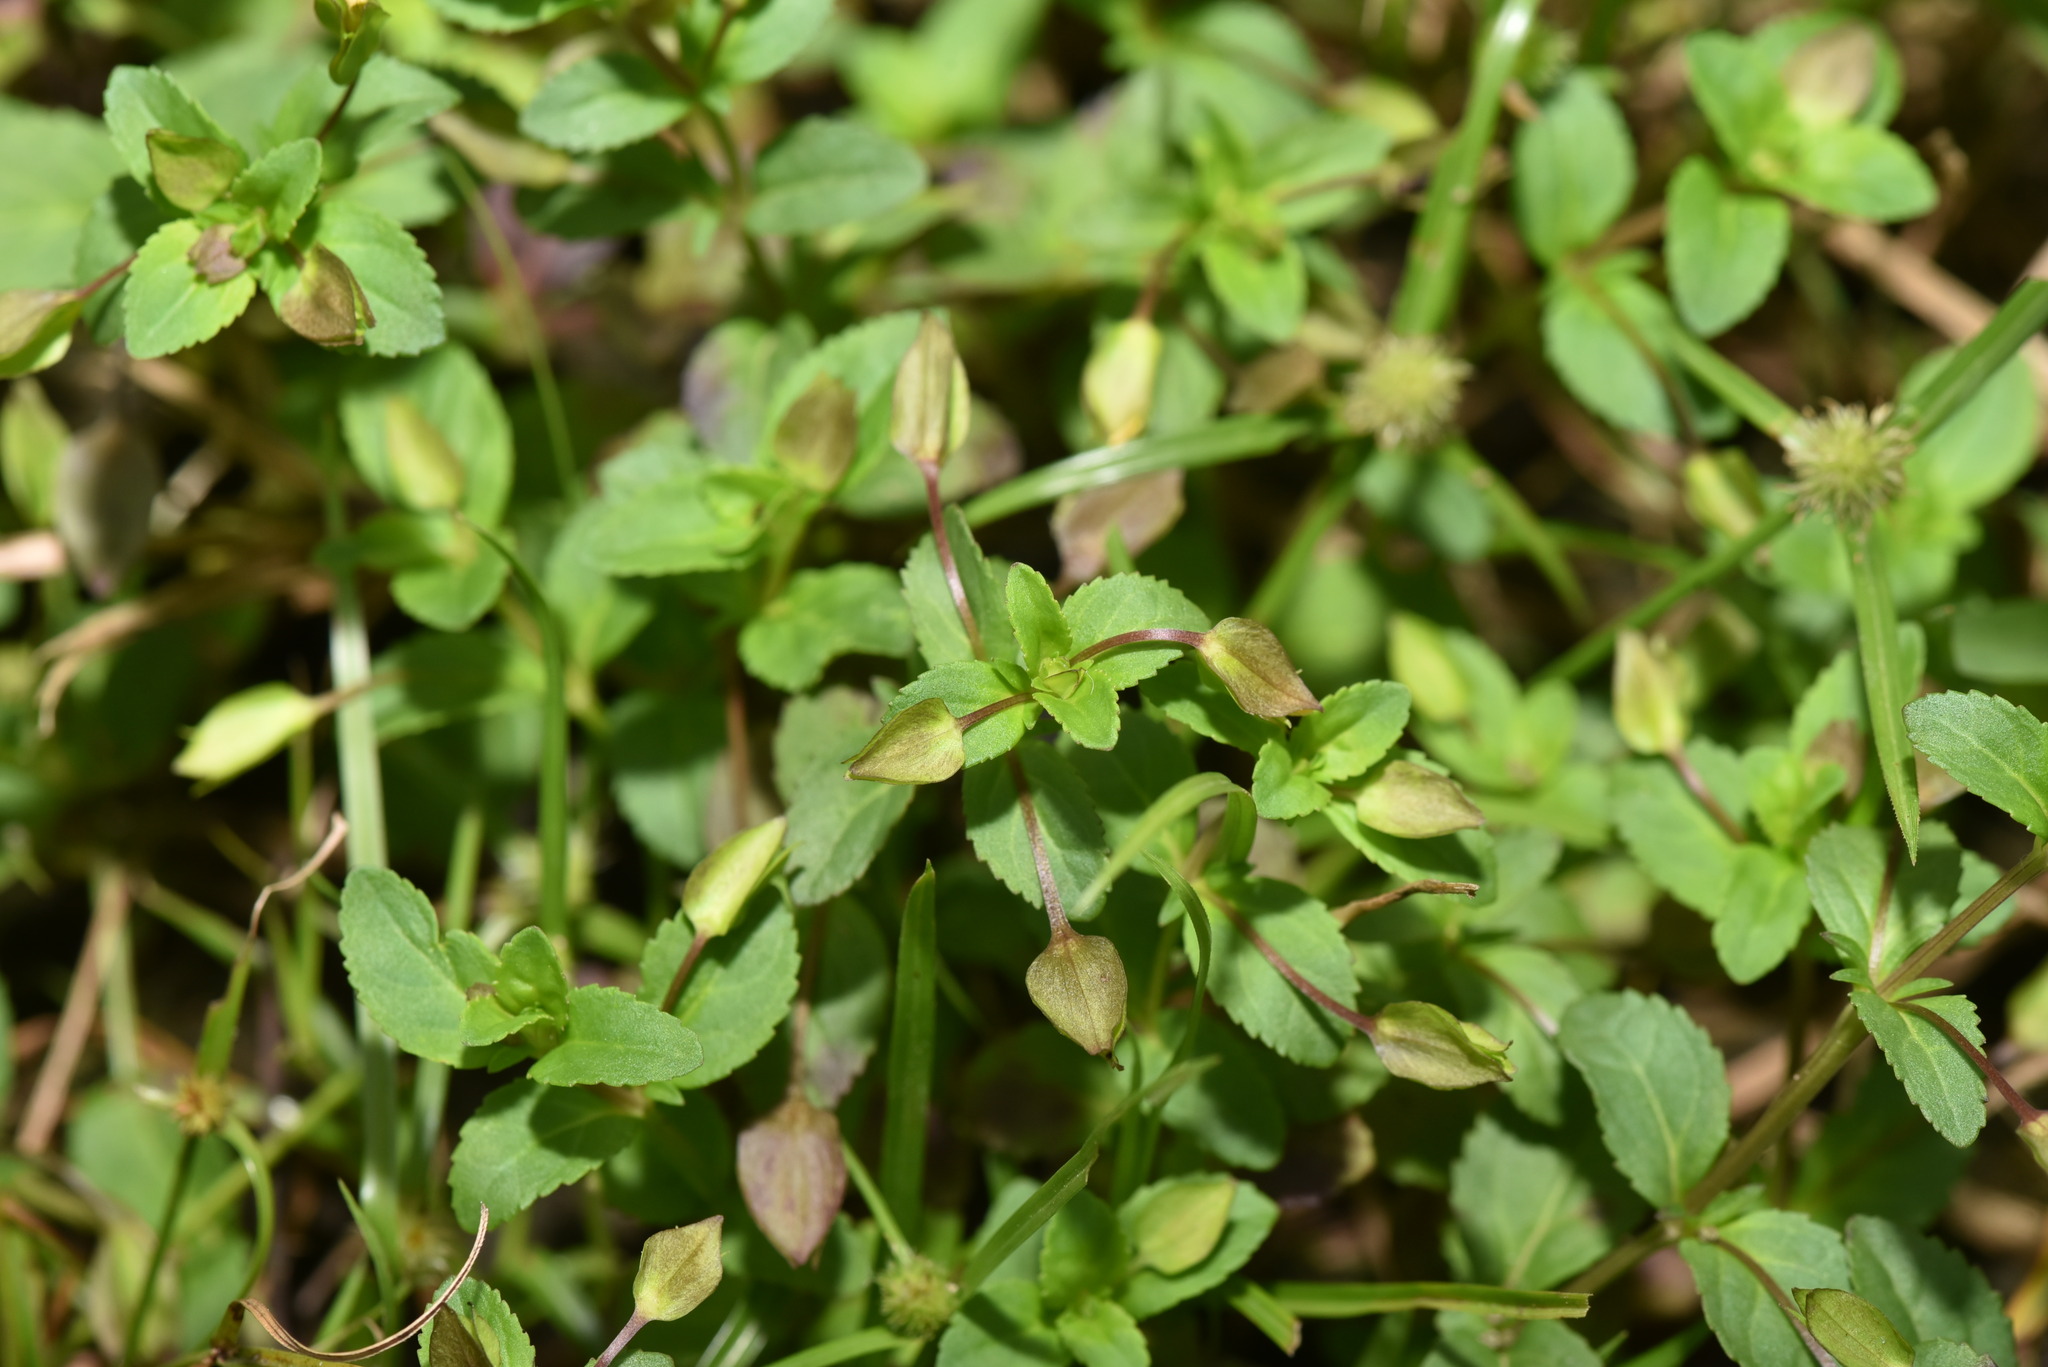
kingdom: Plantae
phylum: Tracheophyta
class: Magnoliopsida
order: Lamiales
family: Plantaginaceae
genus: Mecardonia
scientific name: Mecardonia procumbens
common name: Baby jump-up
